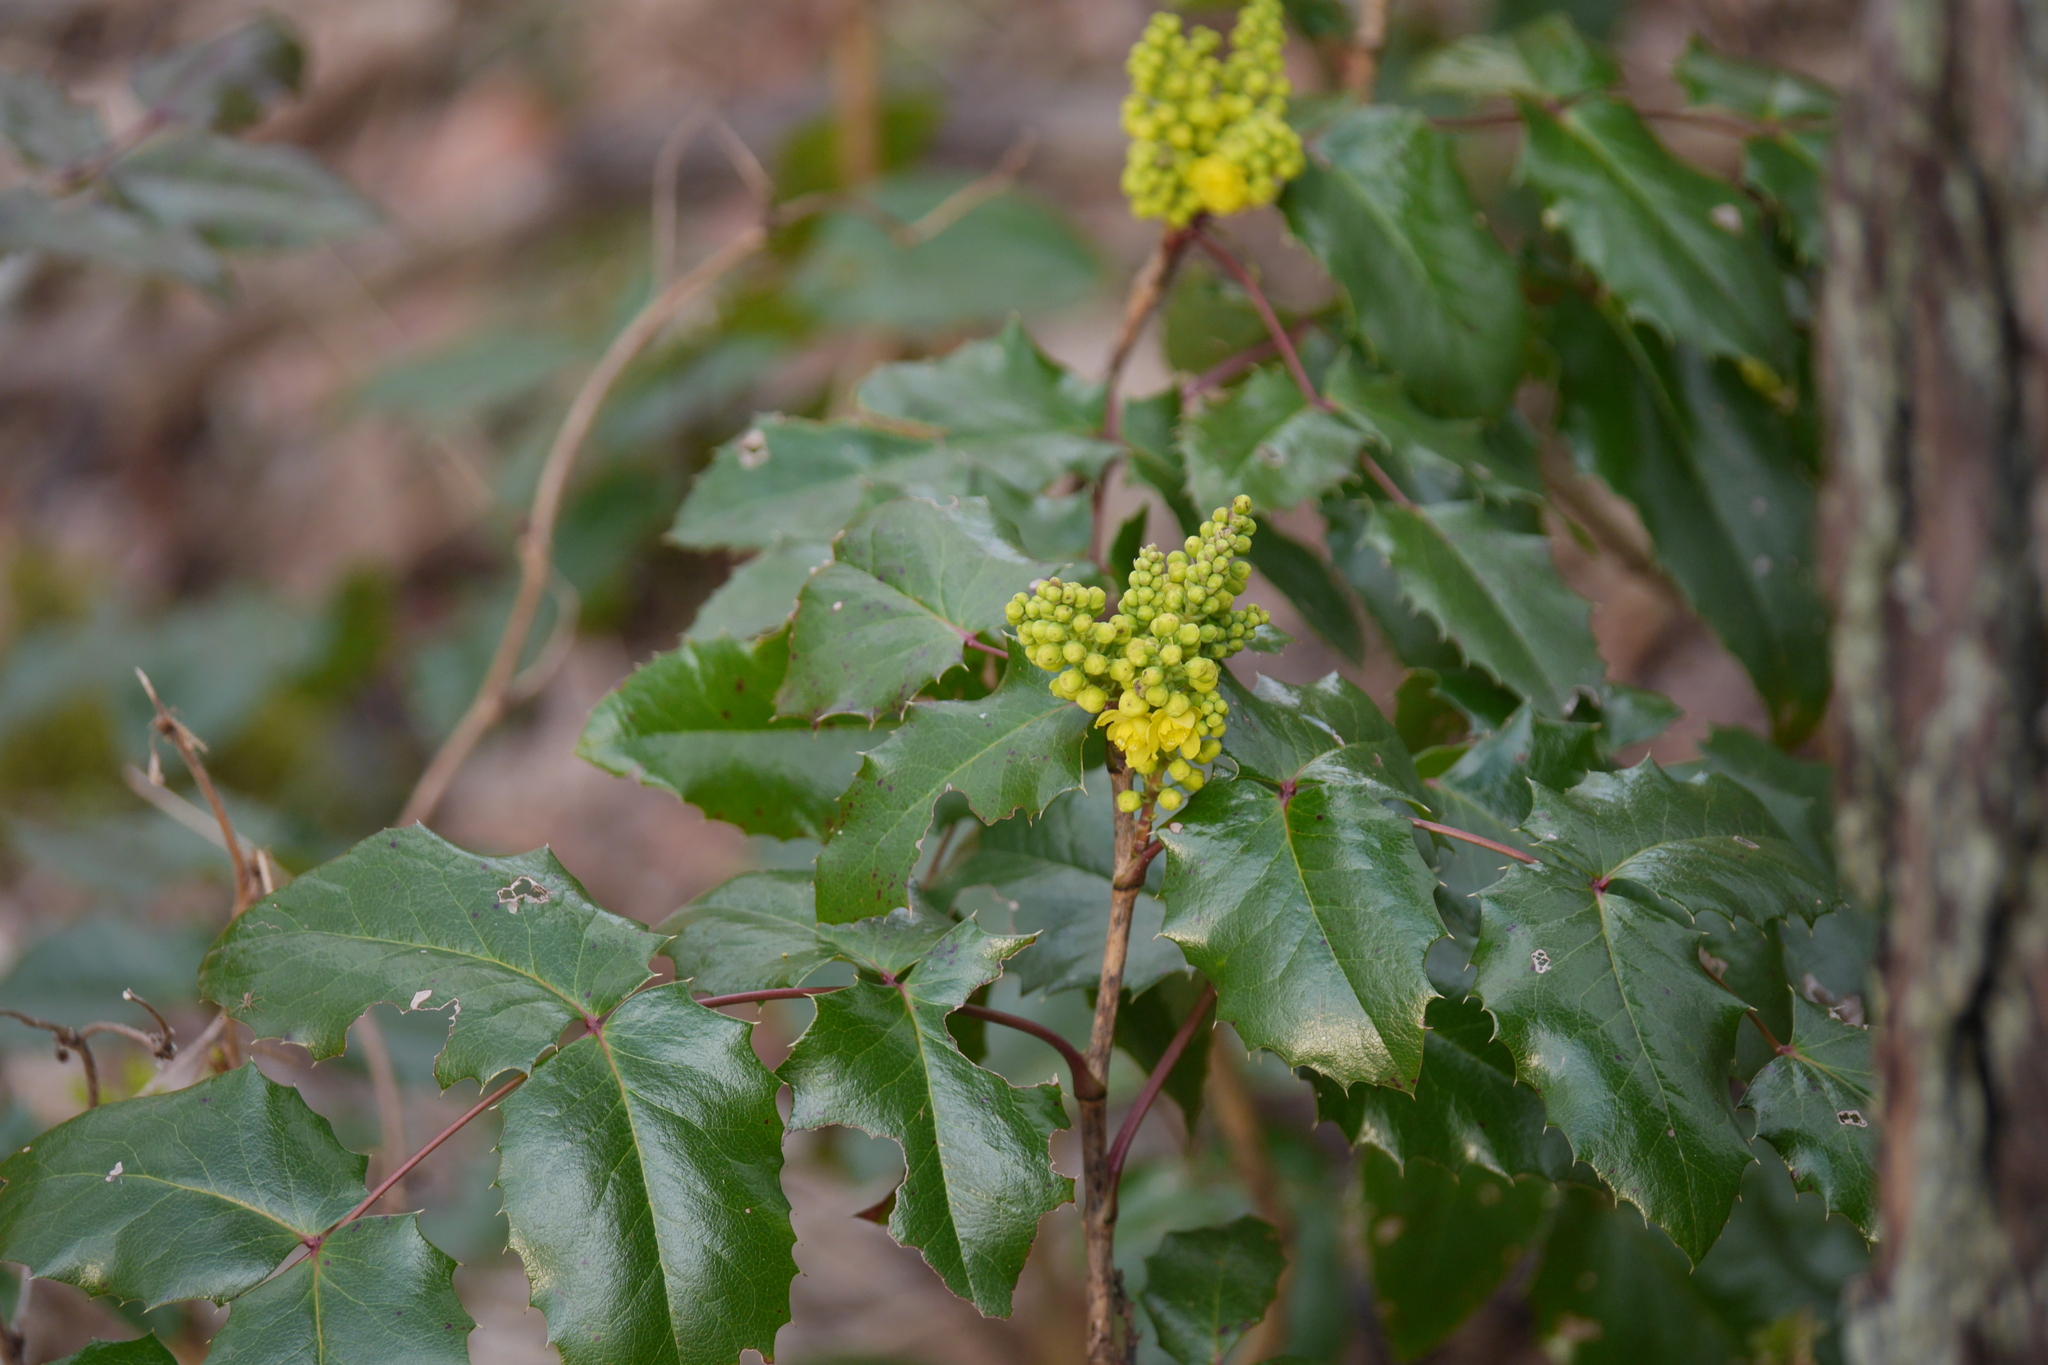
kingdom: Plantae
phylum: Tracheophyta
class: Magnoliopsida
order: Ranunculales
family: Berberidaceae
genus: Mahonia
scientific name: Mahonia aquifolium
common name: Oregon-grape
